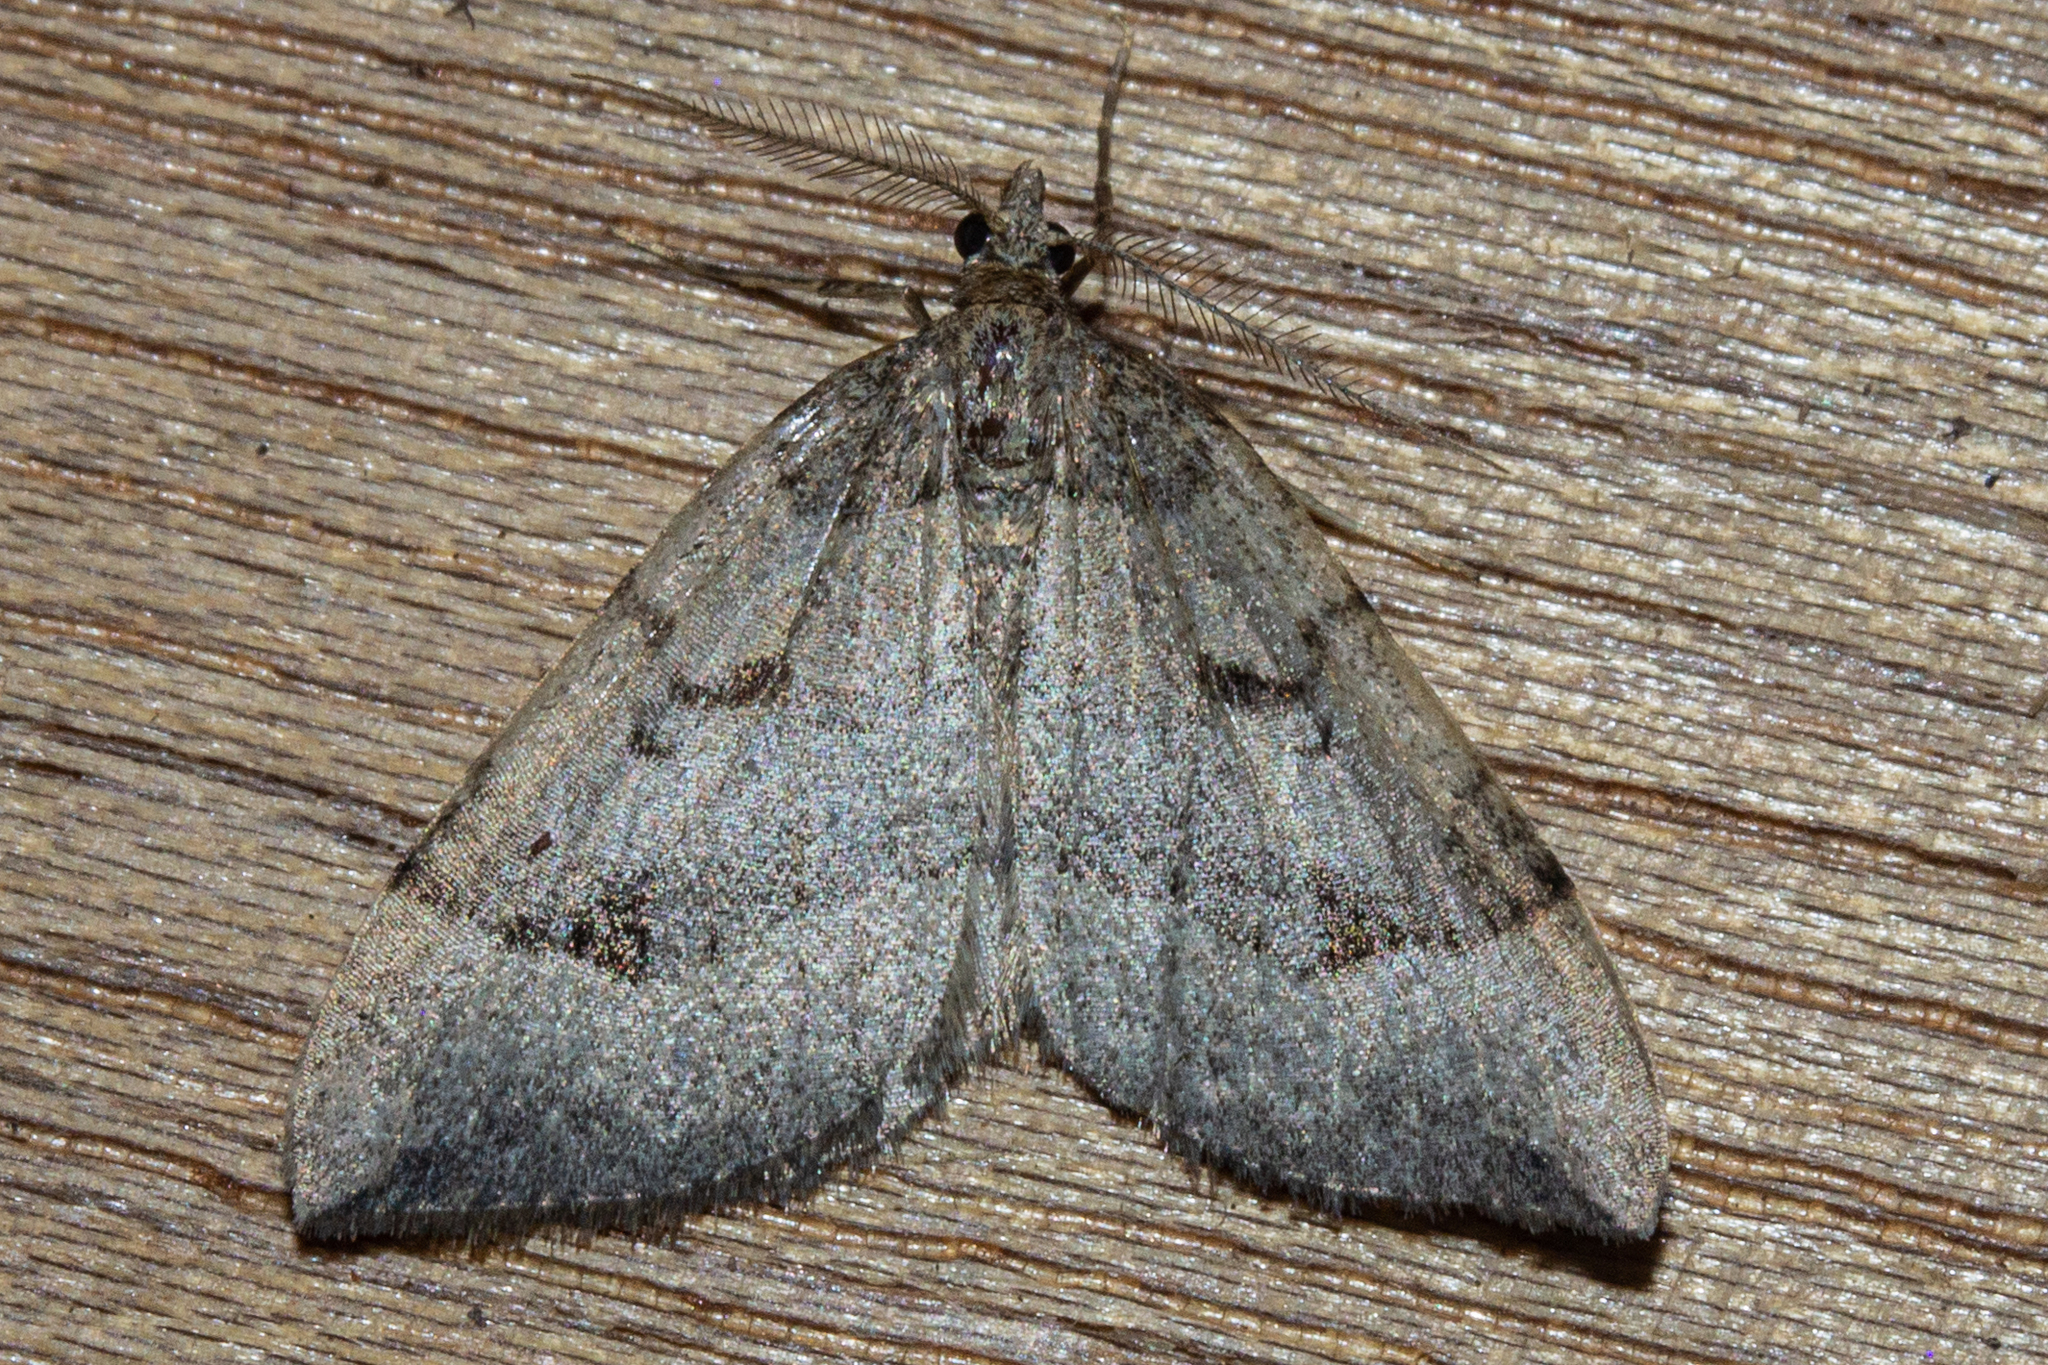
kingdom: Animalia
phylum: Arthropoda
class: Insecta
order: Lepidoptera
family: Geometridae
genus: Epyaxa
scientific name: Epyaxa rosearia
